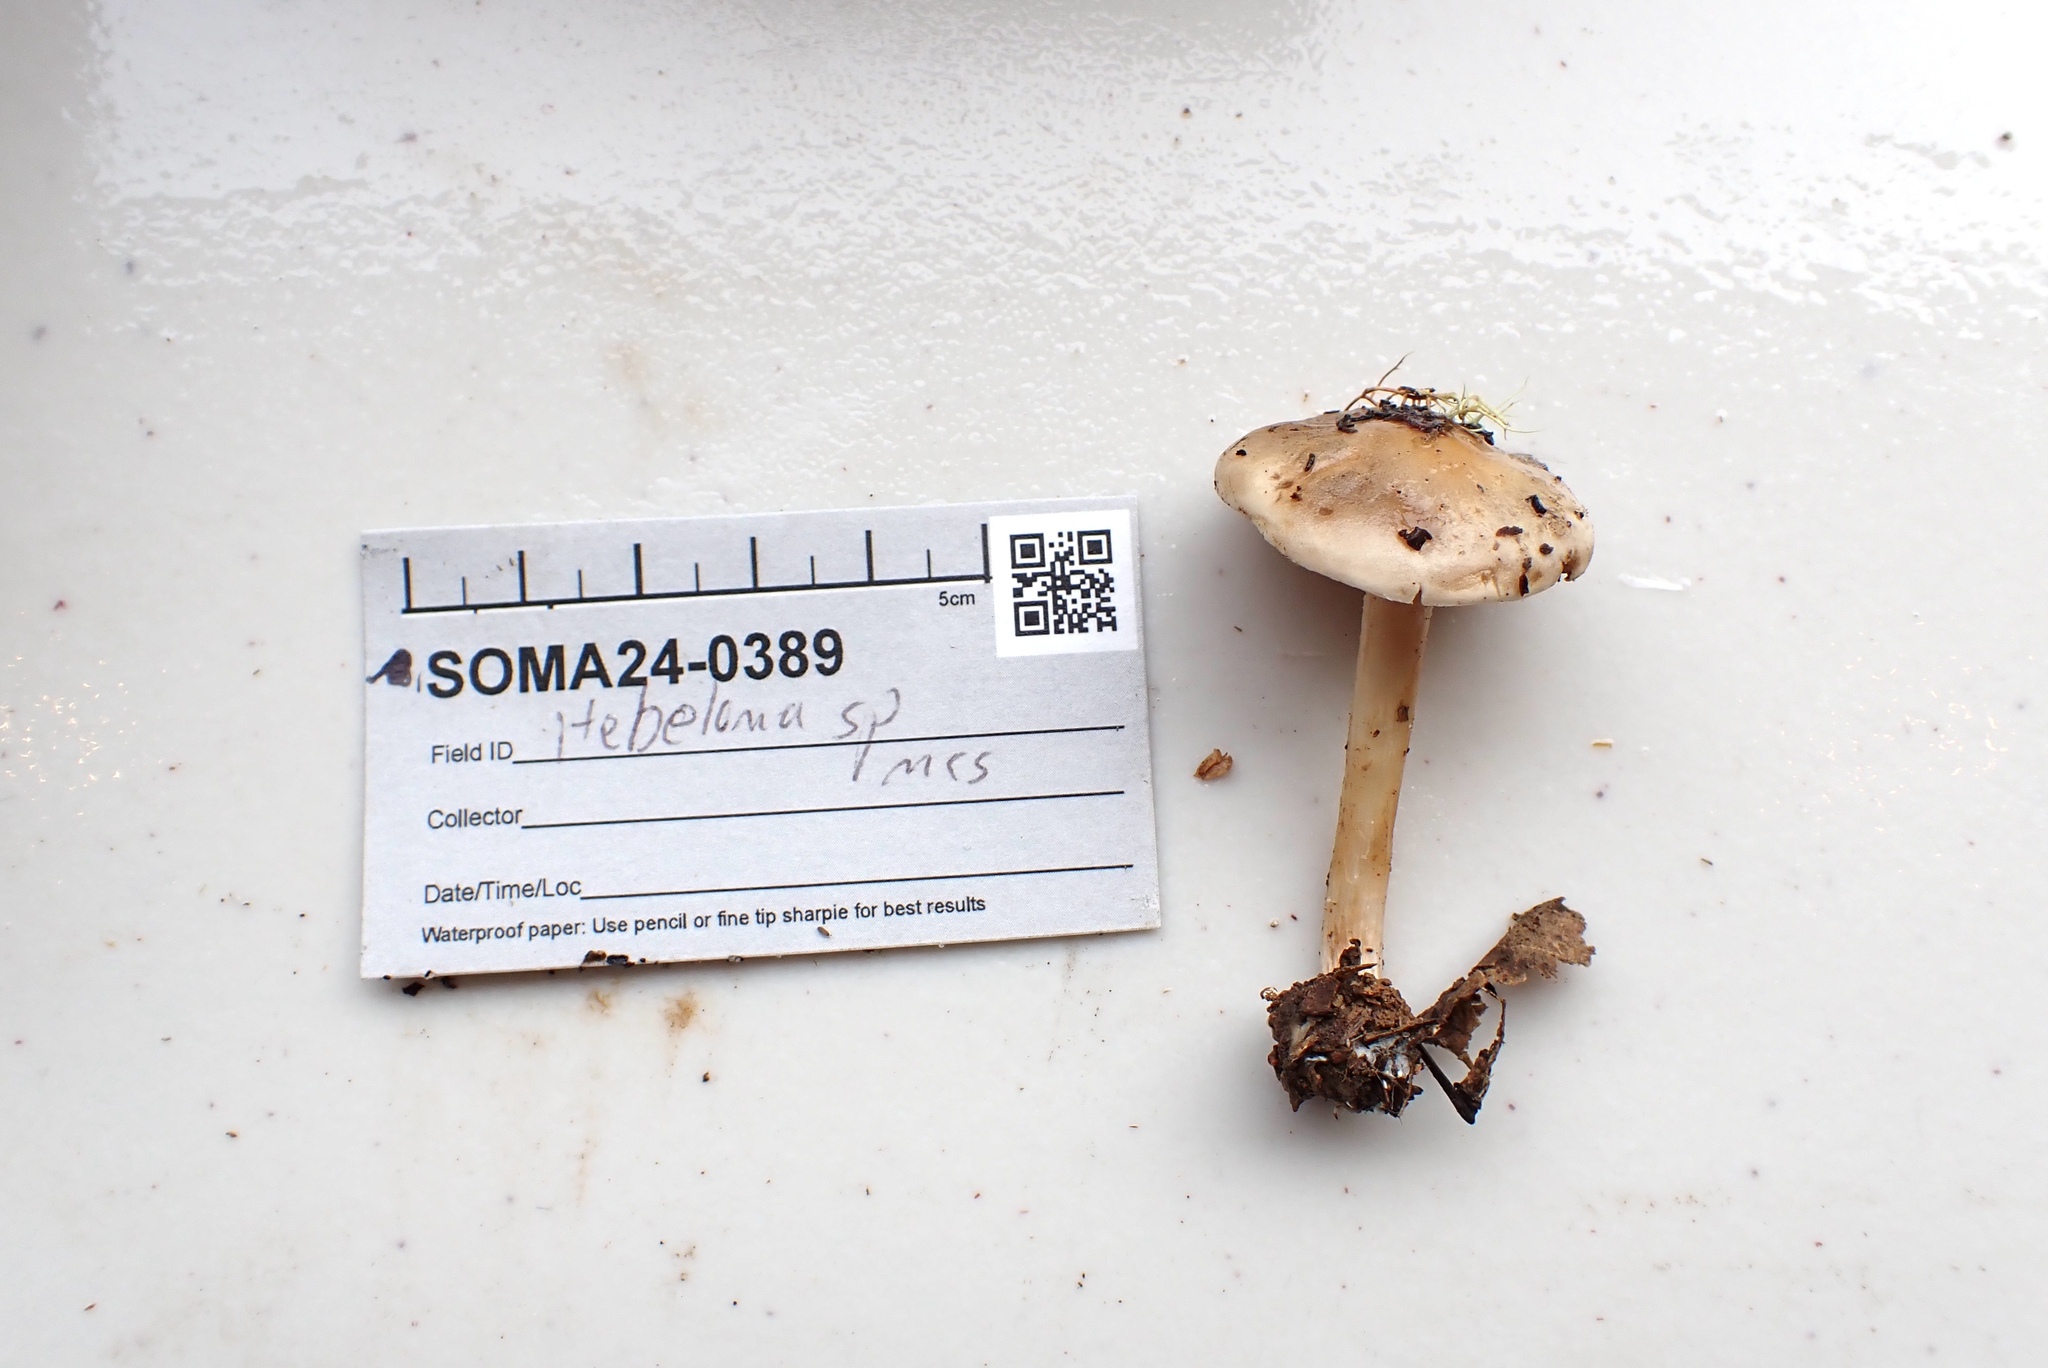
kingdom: Fungi
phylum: Basidiomycota
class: Agaricomycetes
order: Agaricales
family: Hymenogastraceae
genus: Hebeloma
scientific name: Hebeloma leucosarx
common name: Birch poisonpie
